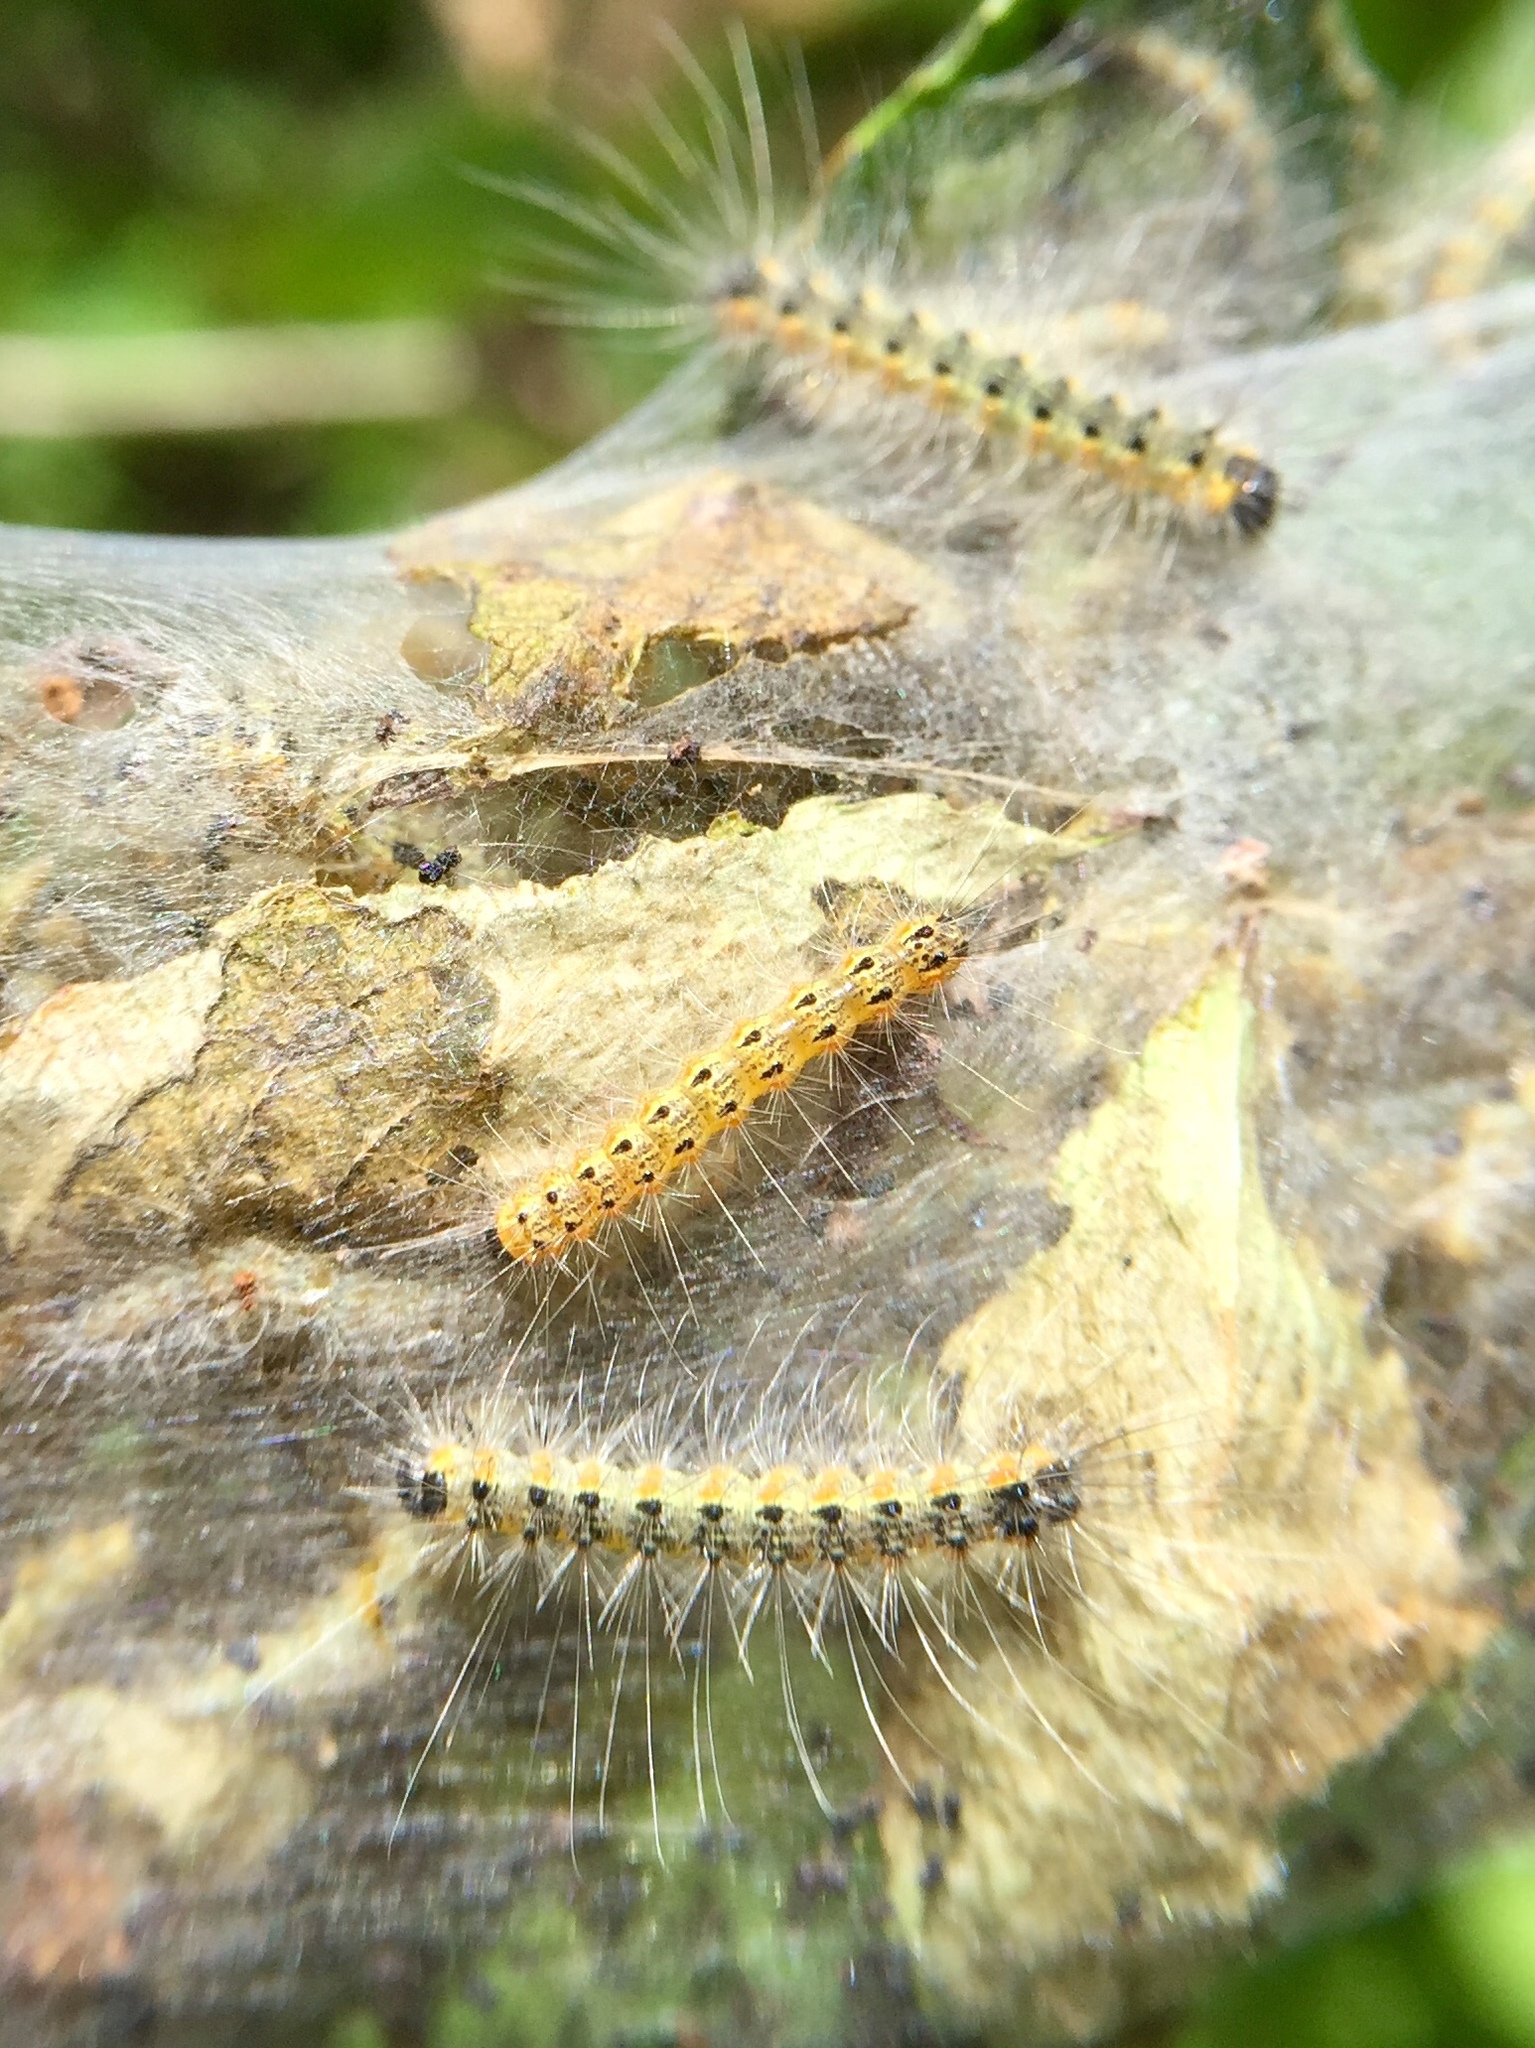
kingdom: Animalia
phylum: Arthropoda
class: Insecta
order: Lepidoptera
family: Erebidae
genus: Hyphantria
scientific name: Hyphantria cunea
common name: American white moth
